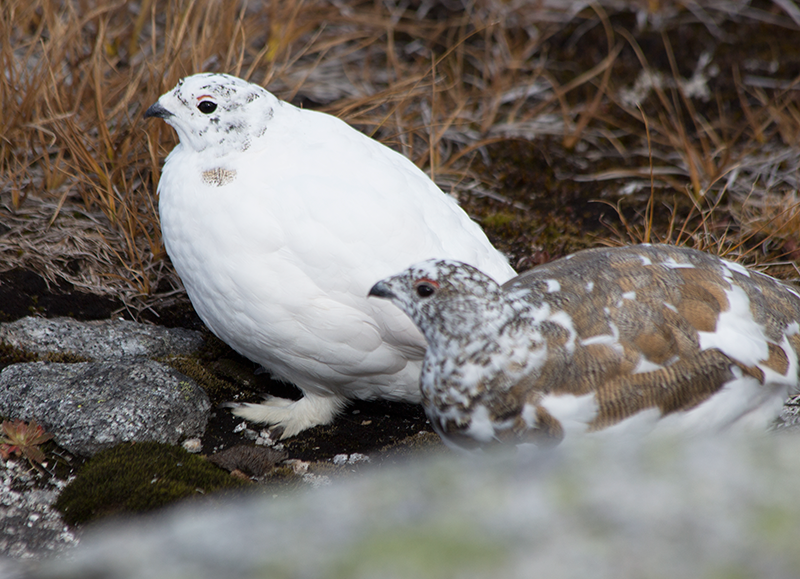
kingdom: Animalia
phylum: Chordata
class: Aves
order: Galliformes
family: Phasianidae
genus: Lagopus
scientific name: Lagopus leucura
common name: White-tailed ptarmigan
